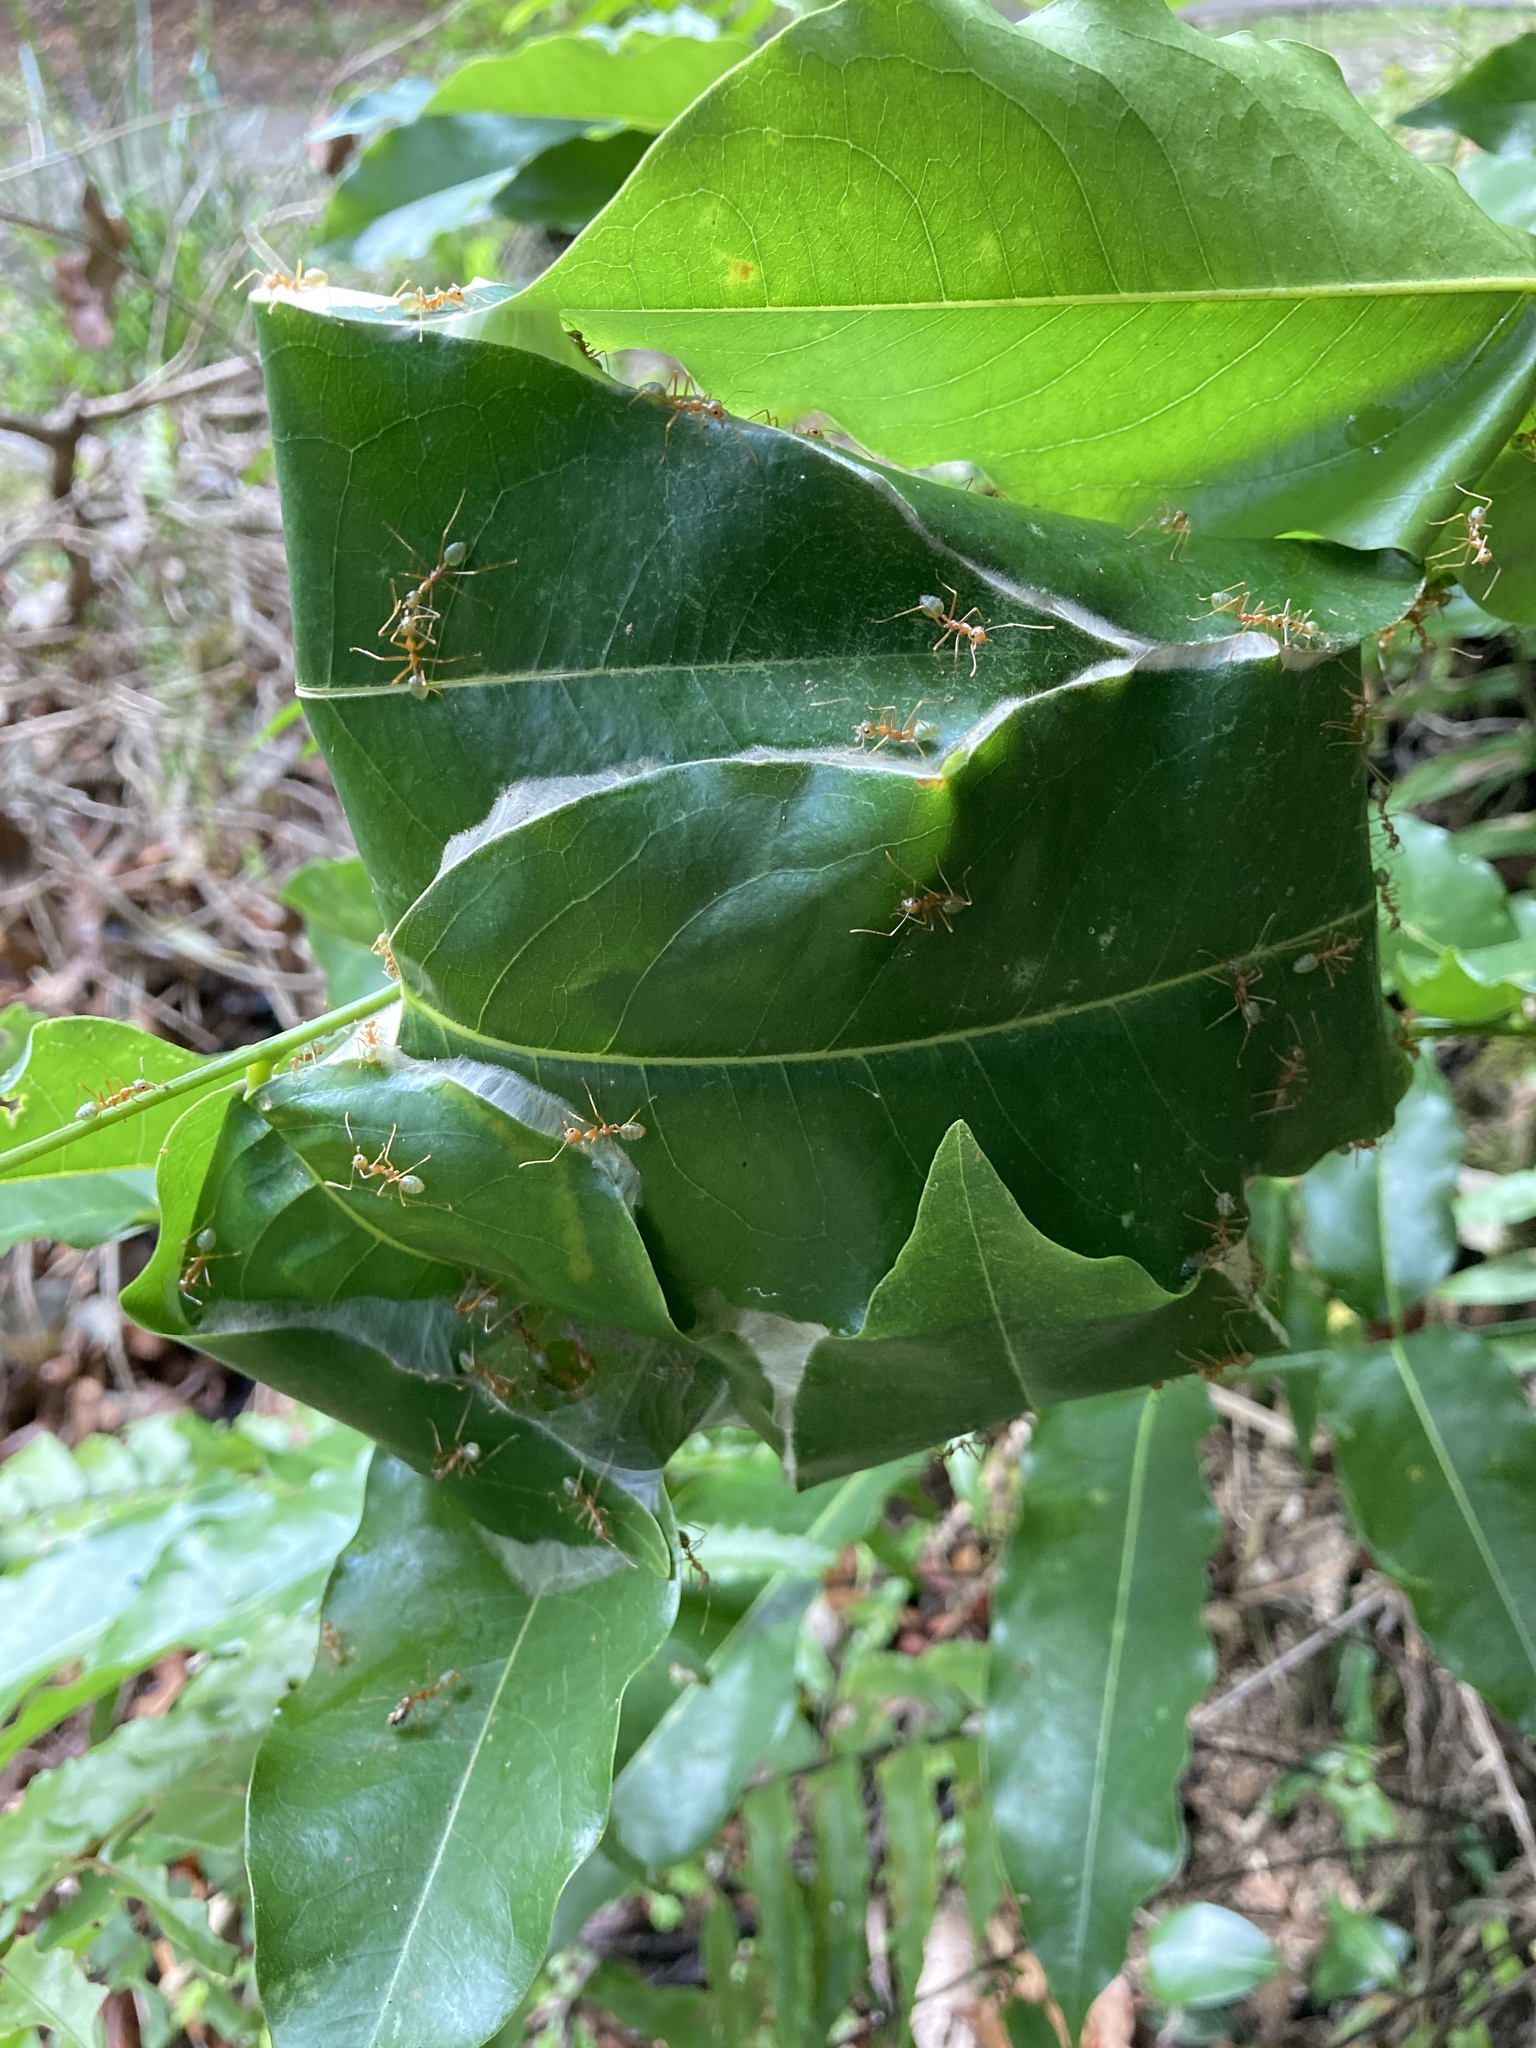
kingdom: Animalia
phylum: Arthropoda
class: Insecta
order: Hymenoptera
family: Formicidae
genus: Oecophylla
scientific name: Oecophylla smaragdina
